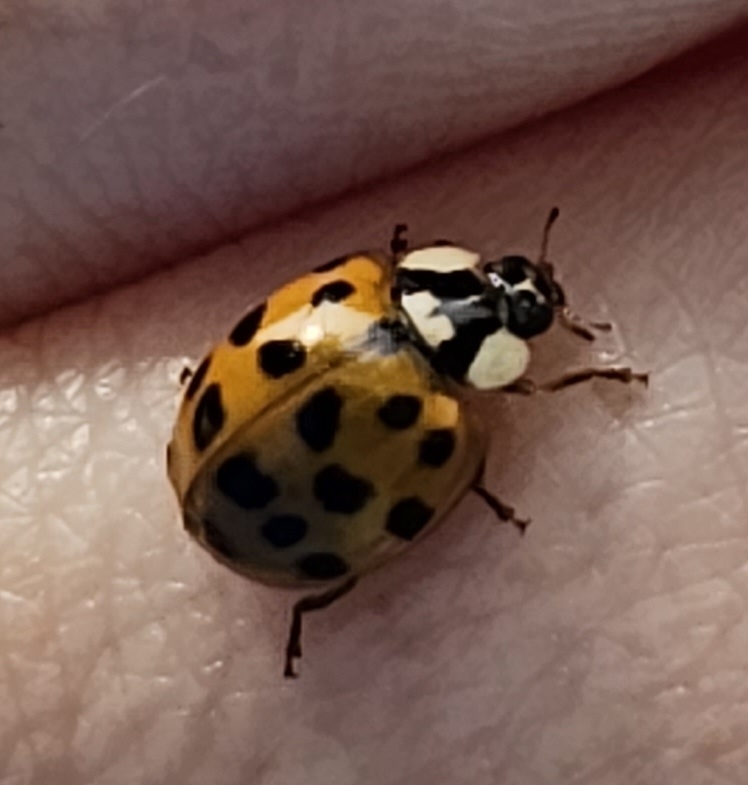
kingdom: Animalia
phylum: Arthropoda
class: Insecta
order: Coleoptera
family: Coccinellidae
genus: Harmonia
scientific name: Harmonia axyridis
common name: Harlequin ladybird
